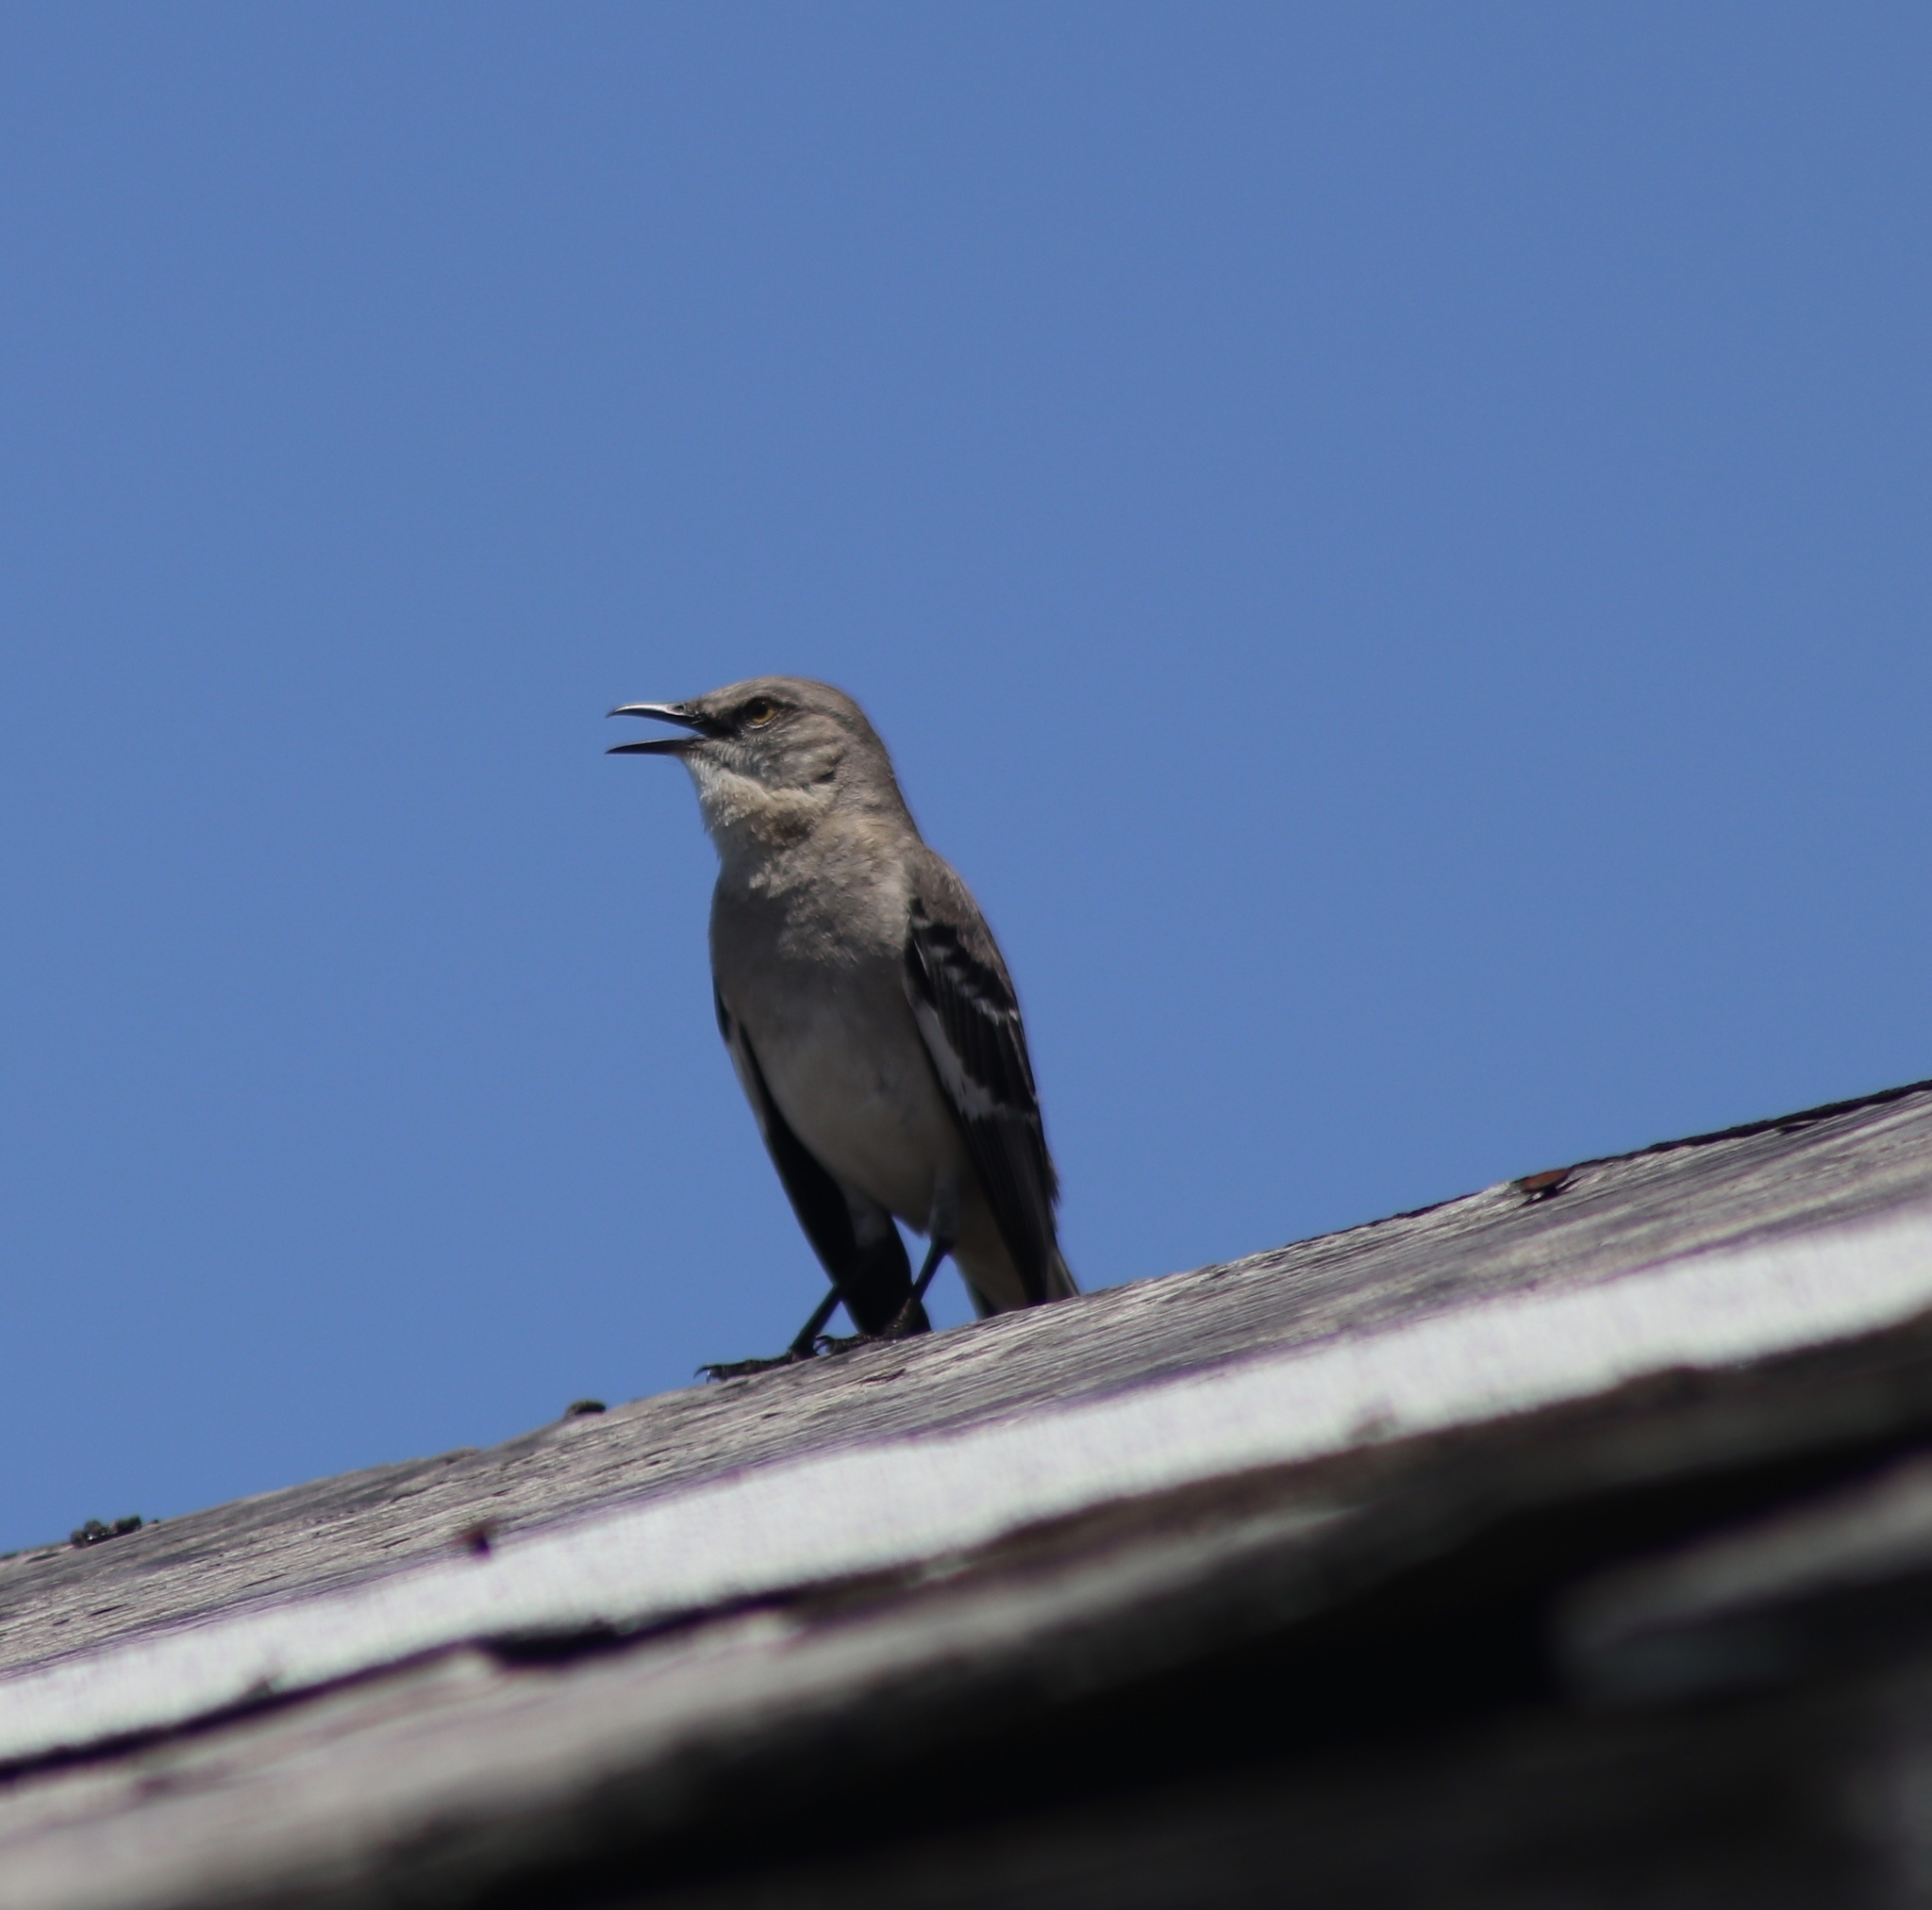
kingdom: Animalia
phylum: Chordata
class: Aves
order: Passeriformes
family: Mimidae
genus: Mimus
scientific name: Mimus polyglottos
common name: Northern mockingbird
